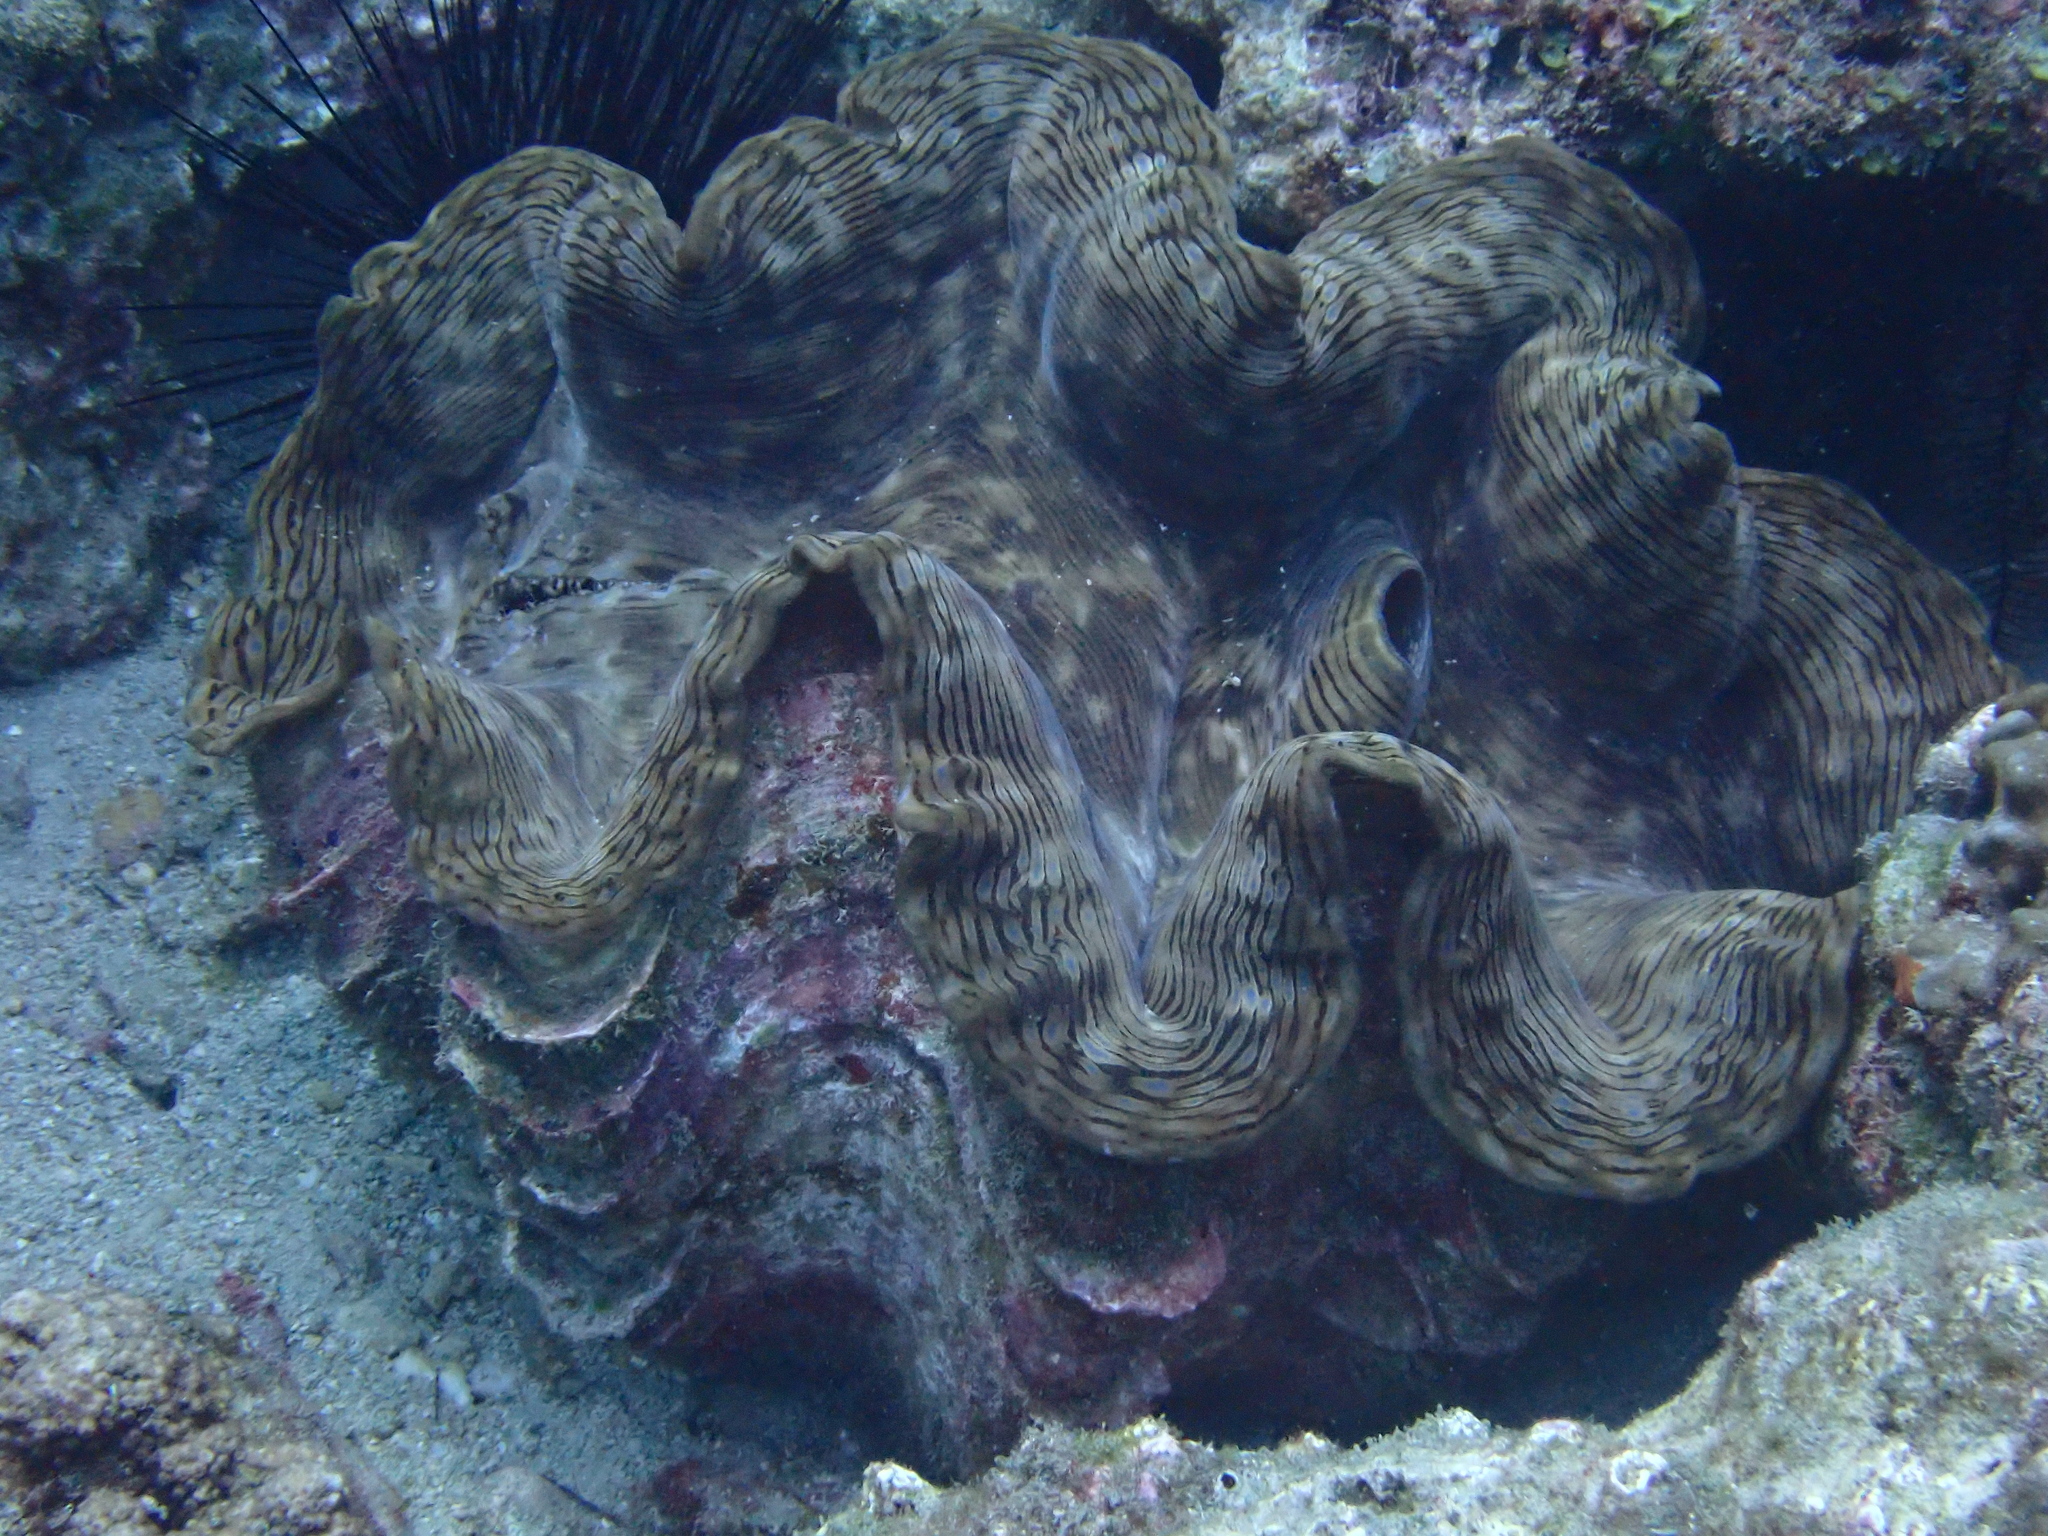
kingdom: Animalia
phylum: Mollusca
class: Bivalvia
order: Cardiida
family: Cardiidae
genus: Tridacna
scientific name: Tridacna squamosa
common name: Fluted clam
